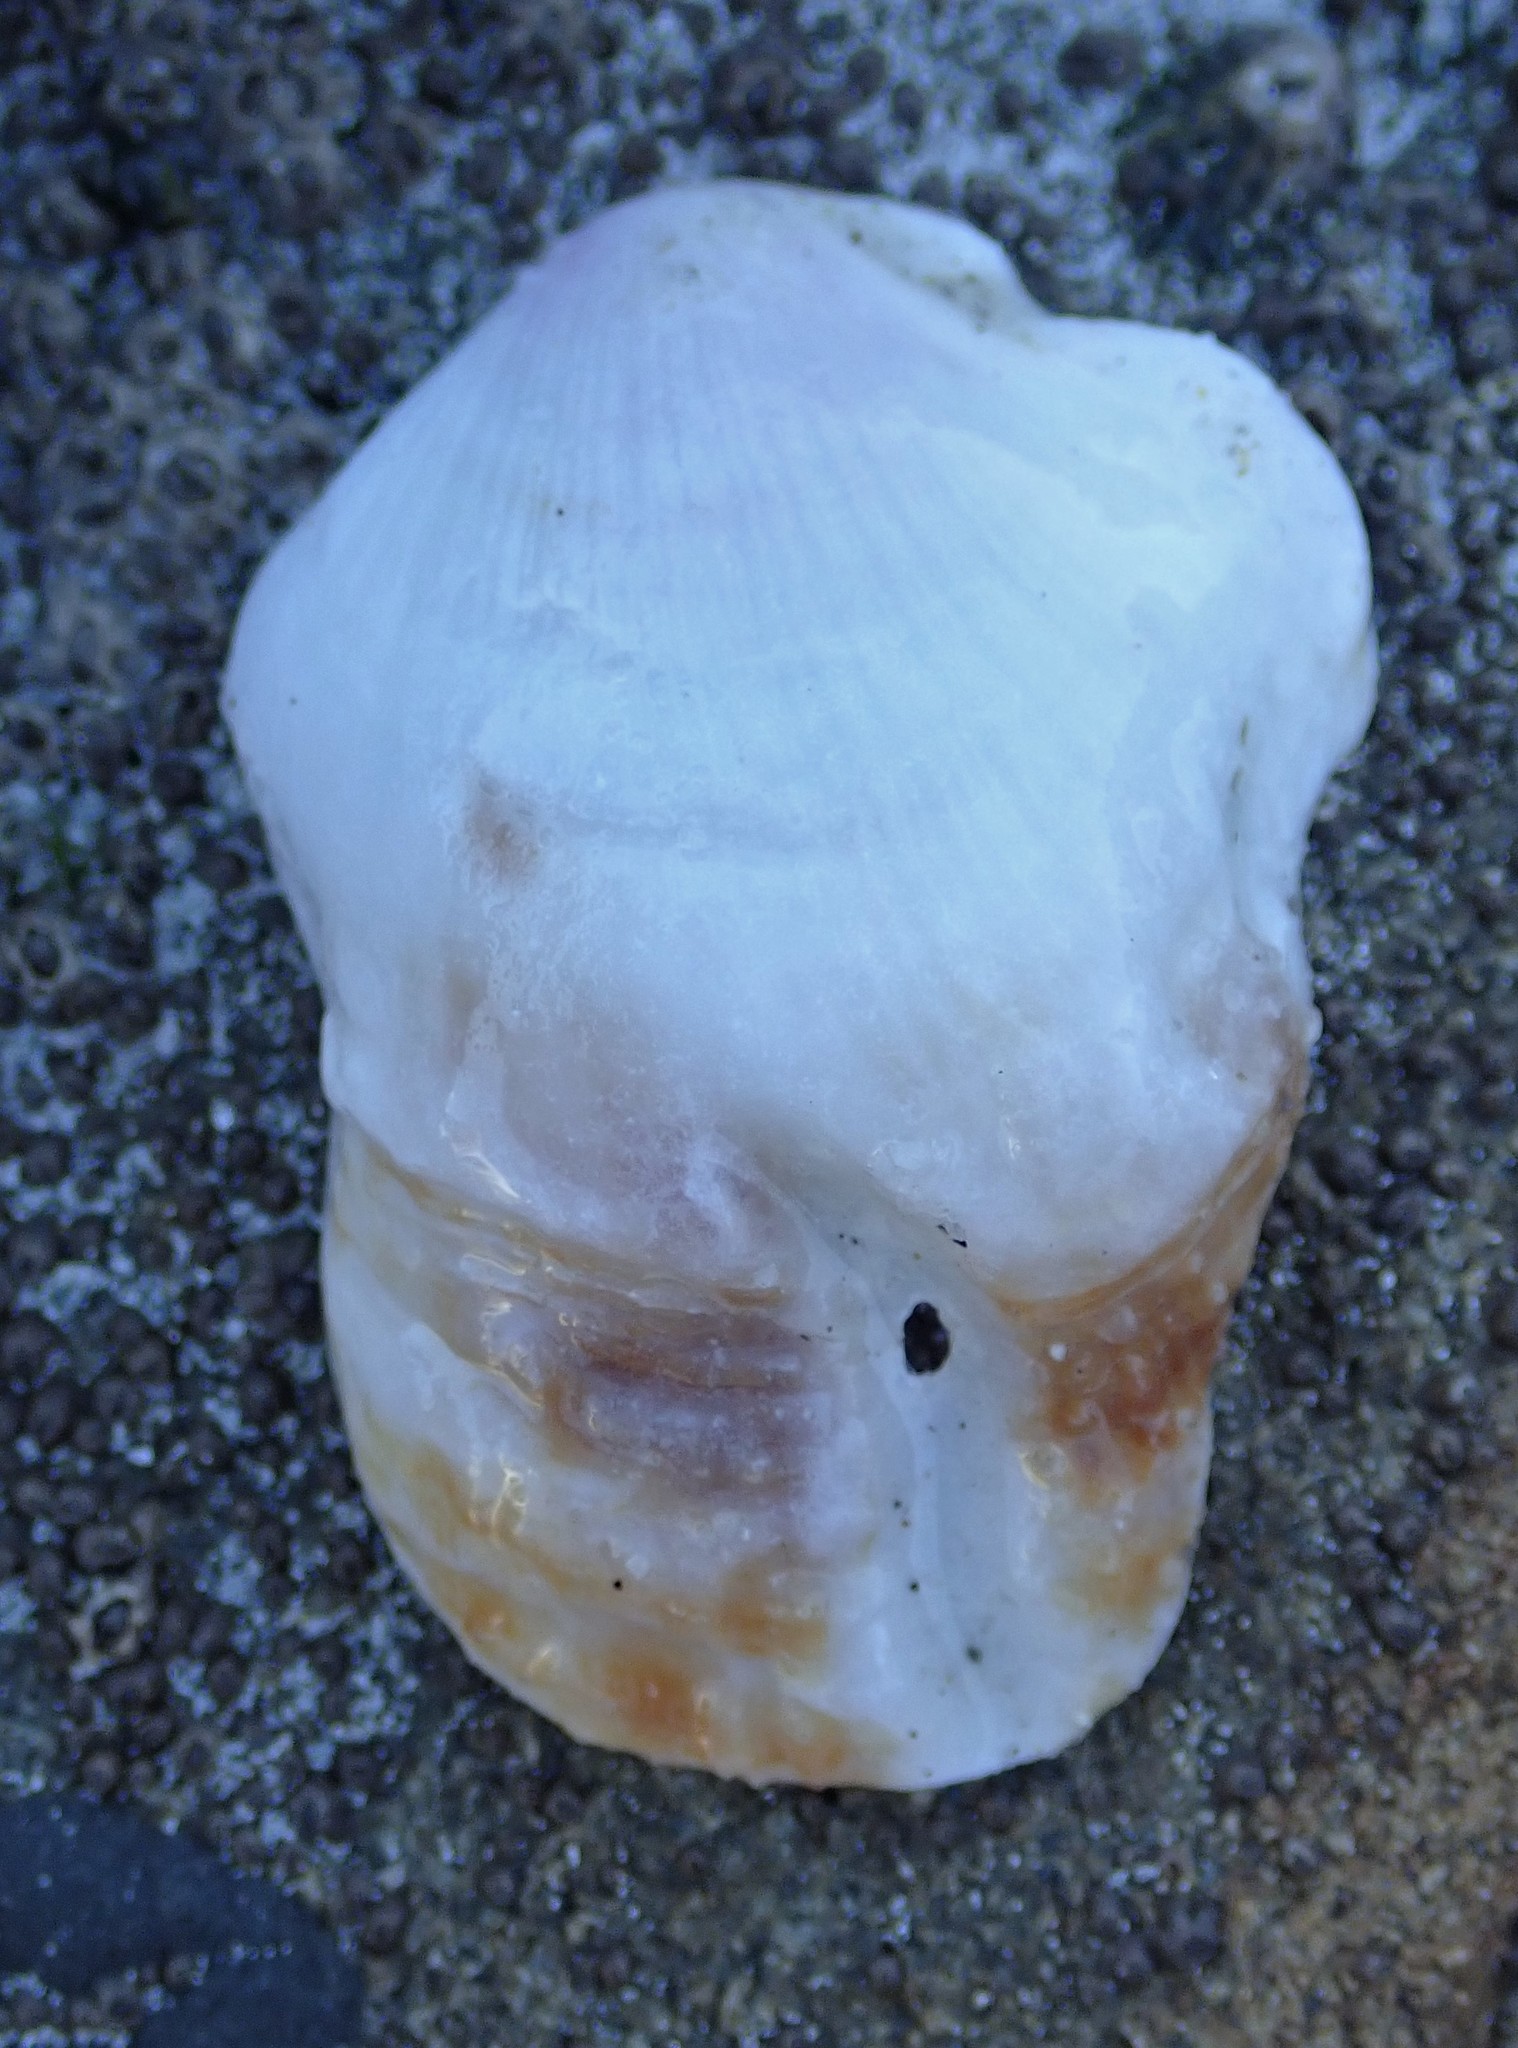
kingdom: Animalia
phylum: Mollusca
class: Bivalvia
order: Pectinida
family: Pectinidae
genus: Crassadoma
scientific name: Crassadoma gigantea
